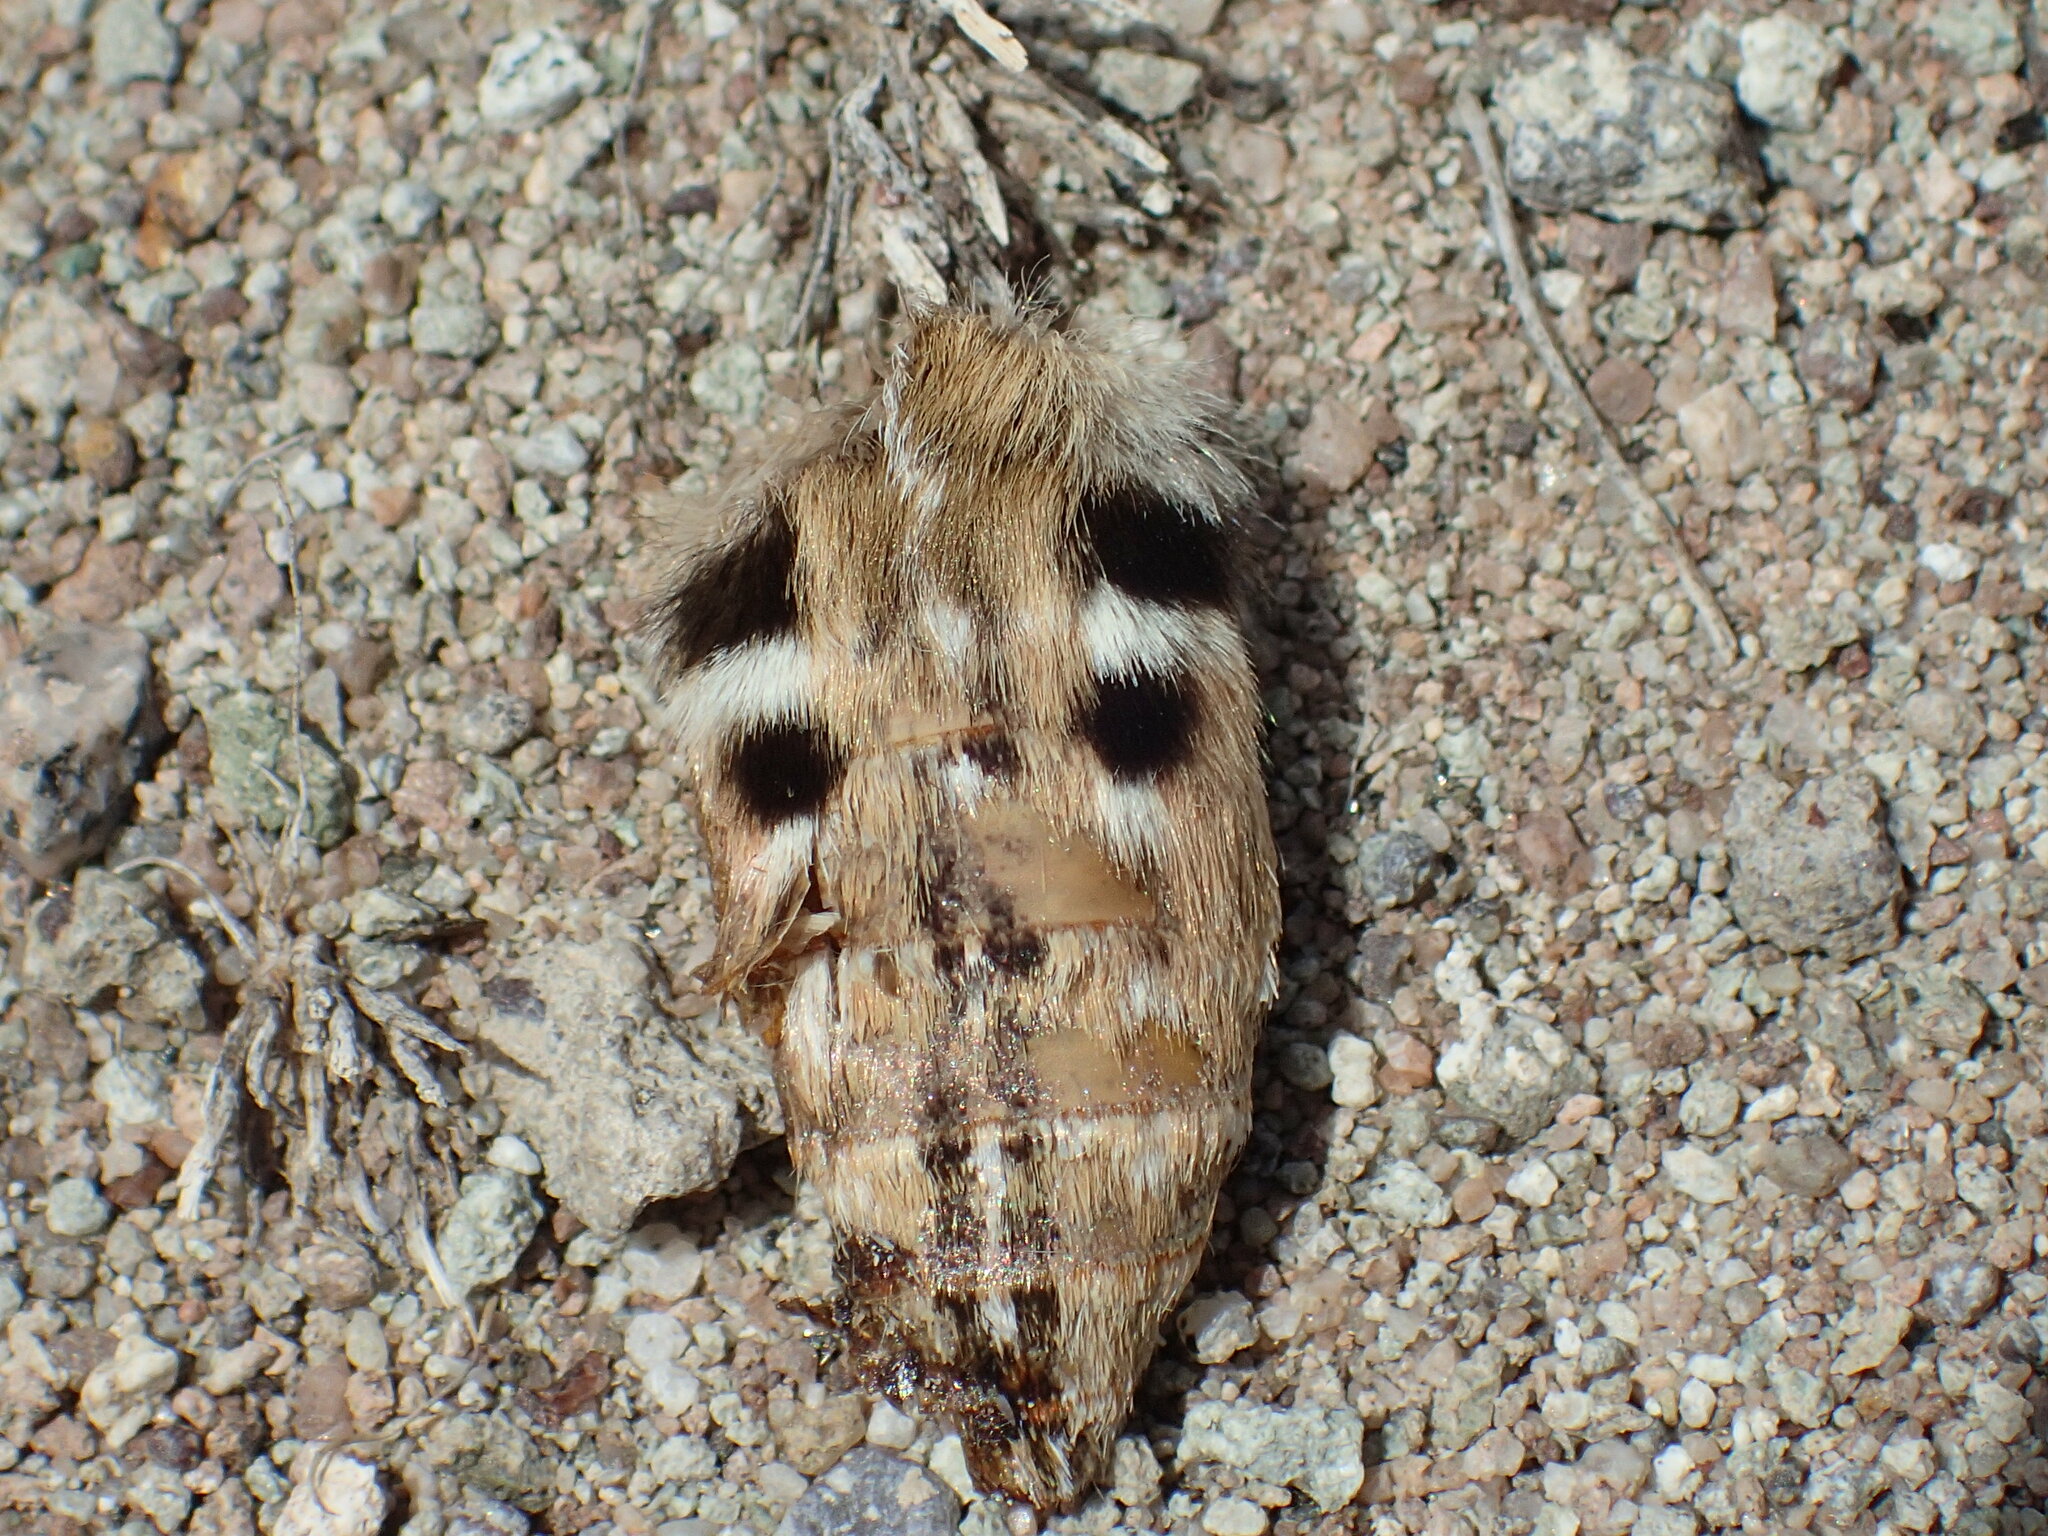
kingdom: Animalia
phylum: Arthropoda
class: Insecta
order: Lepidoptera
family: Sphingidae
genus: Hyles
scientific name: Hyles lineata
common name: White-lined sphinx
